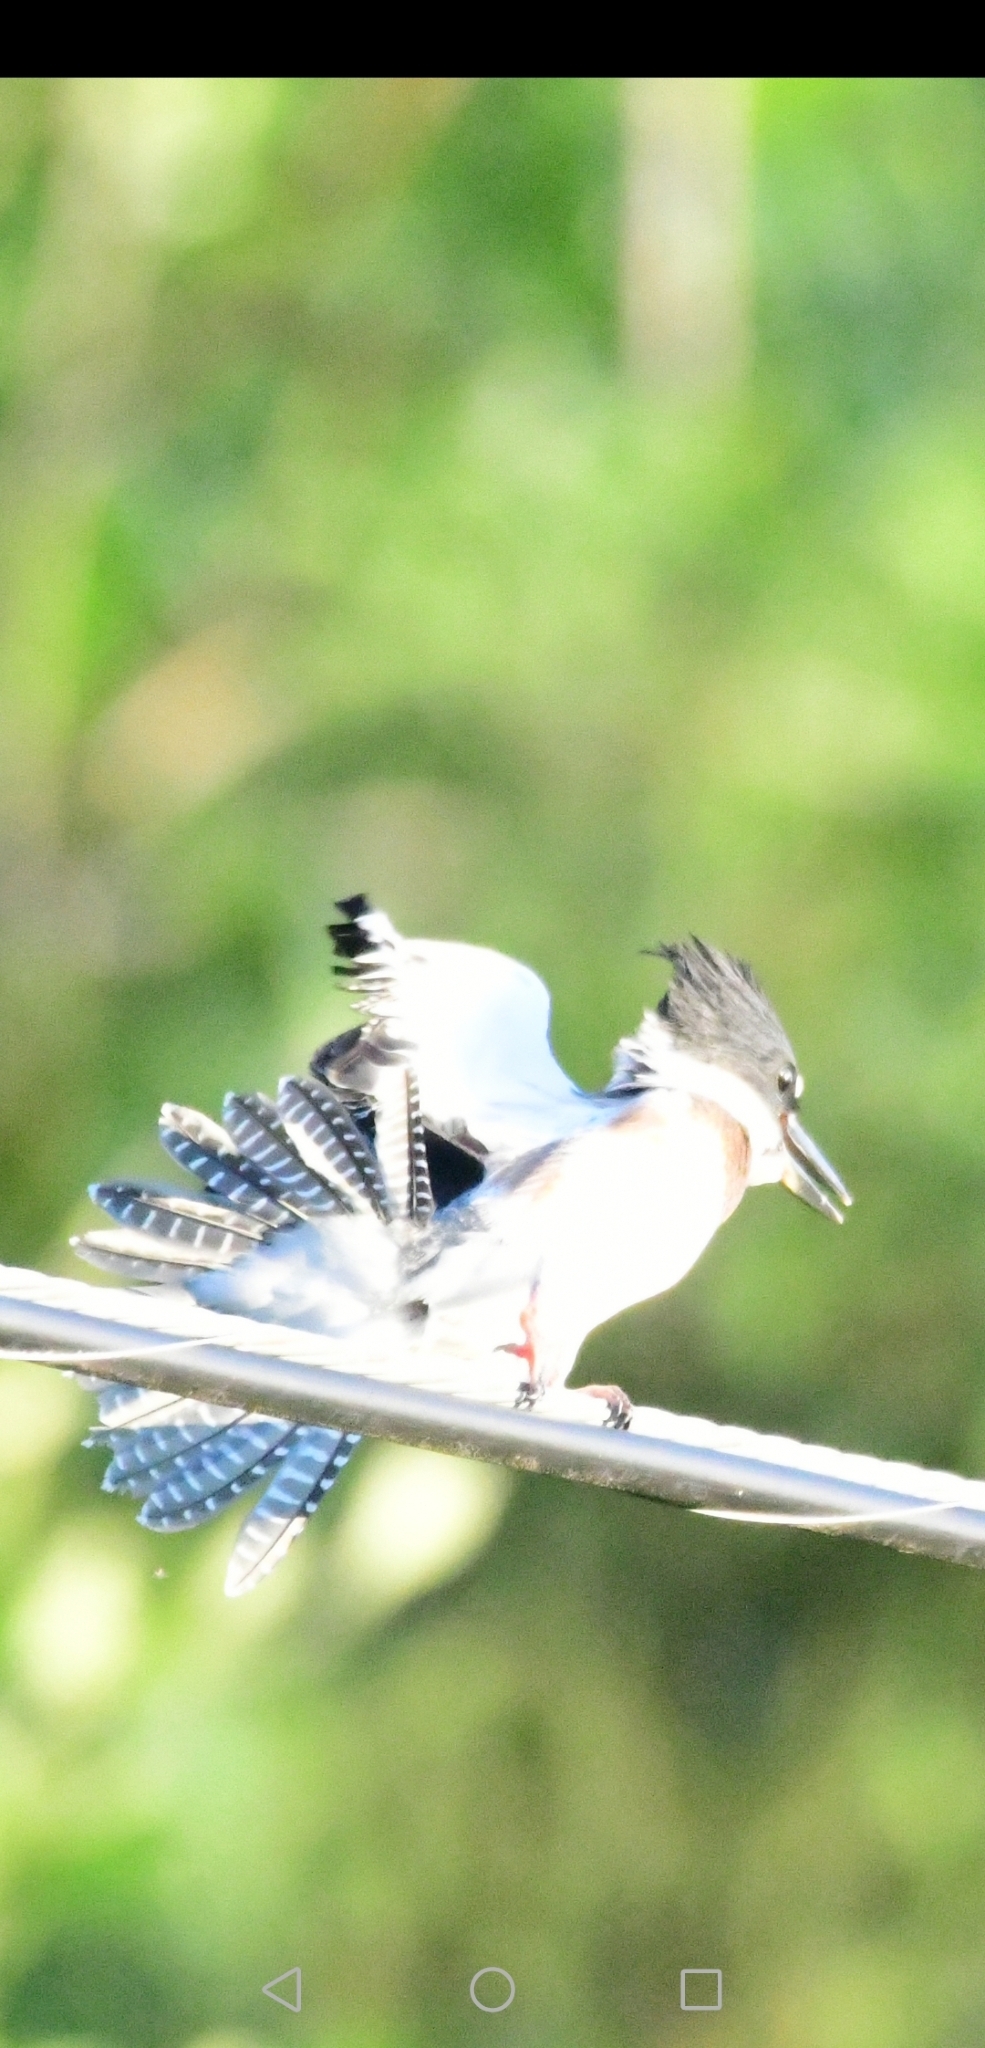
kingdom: Animalia
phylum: Chordata
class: Aves
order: Coraciiformes
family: Alcedinidae
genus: Megaceryle
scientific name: Megaceryle alcyon
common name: Belted kingfisher
